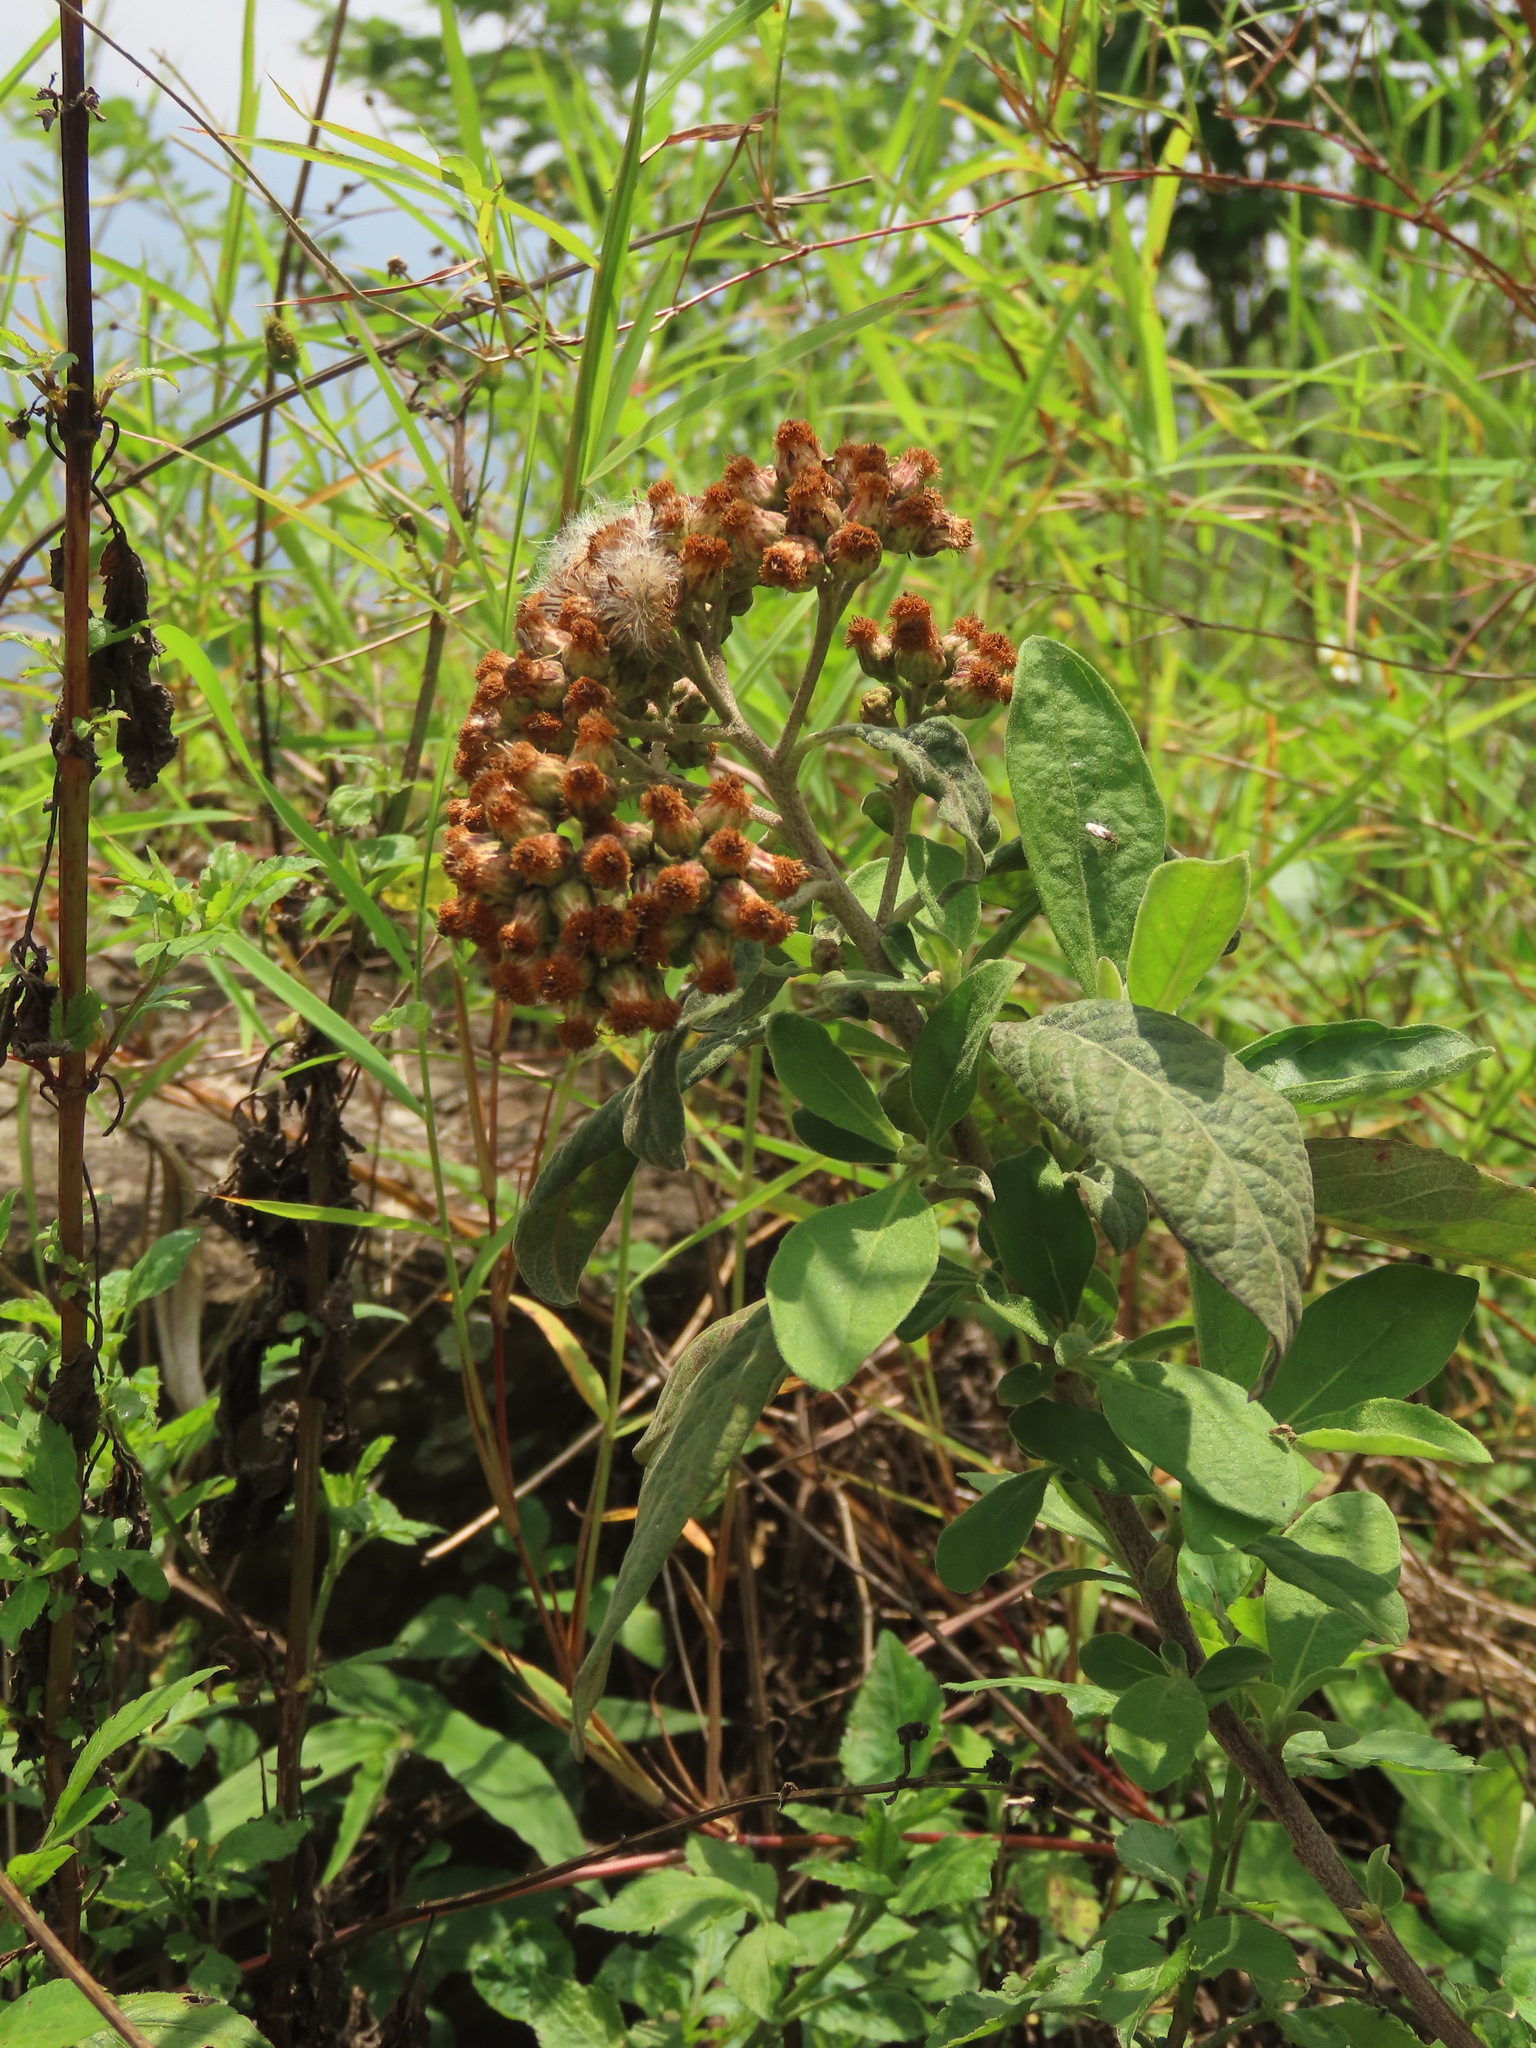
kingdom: Plantae
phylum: Tracheophyta
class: Magnoliopsida
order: Asterales
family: Asteraceae
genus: Pluchea
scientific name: Pluchea carolinensis
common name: Marsh fleabane
